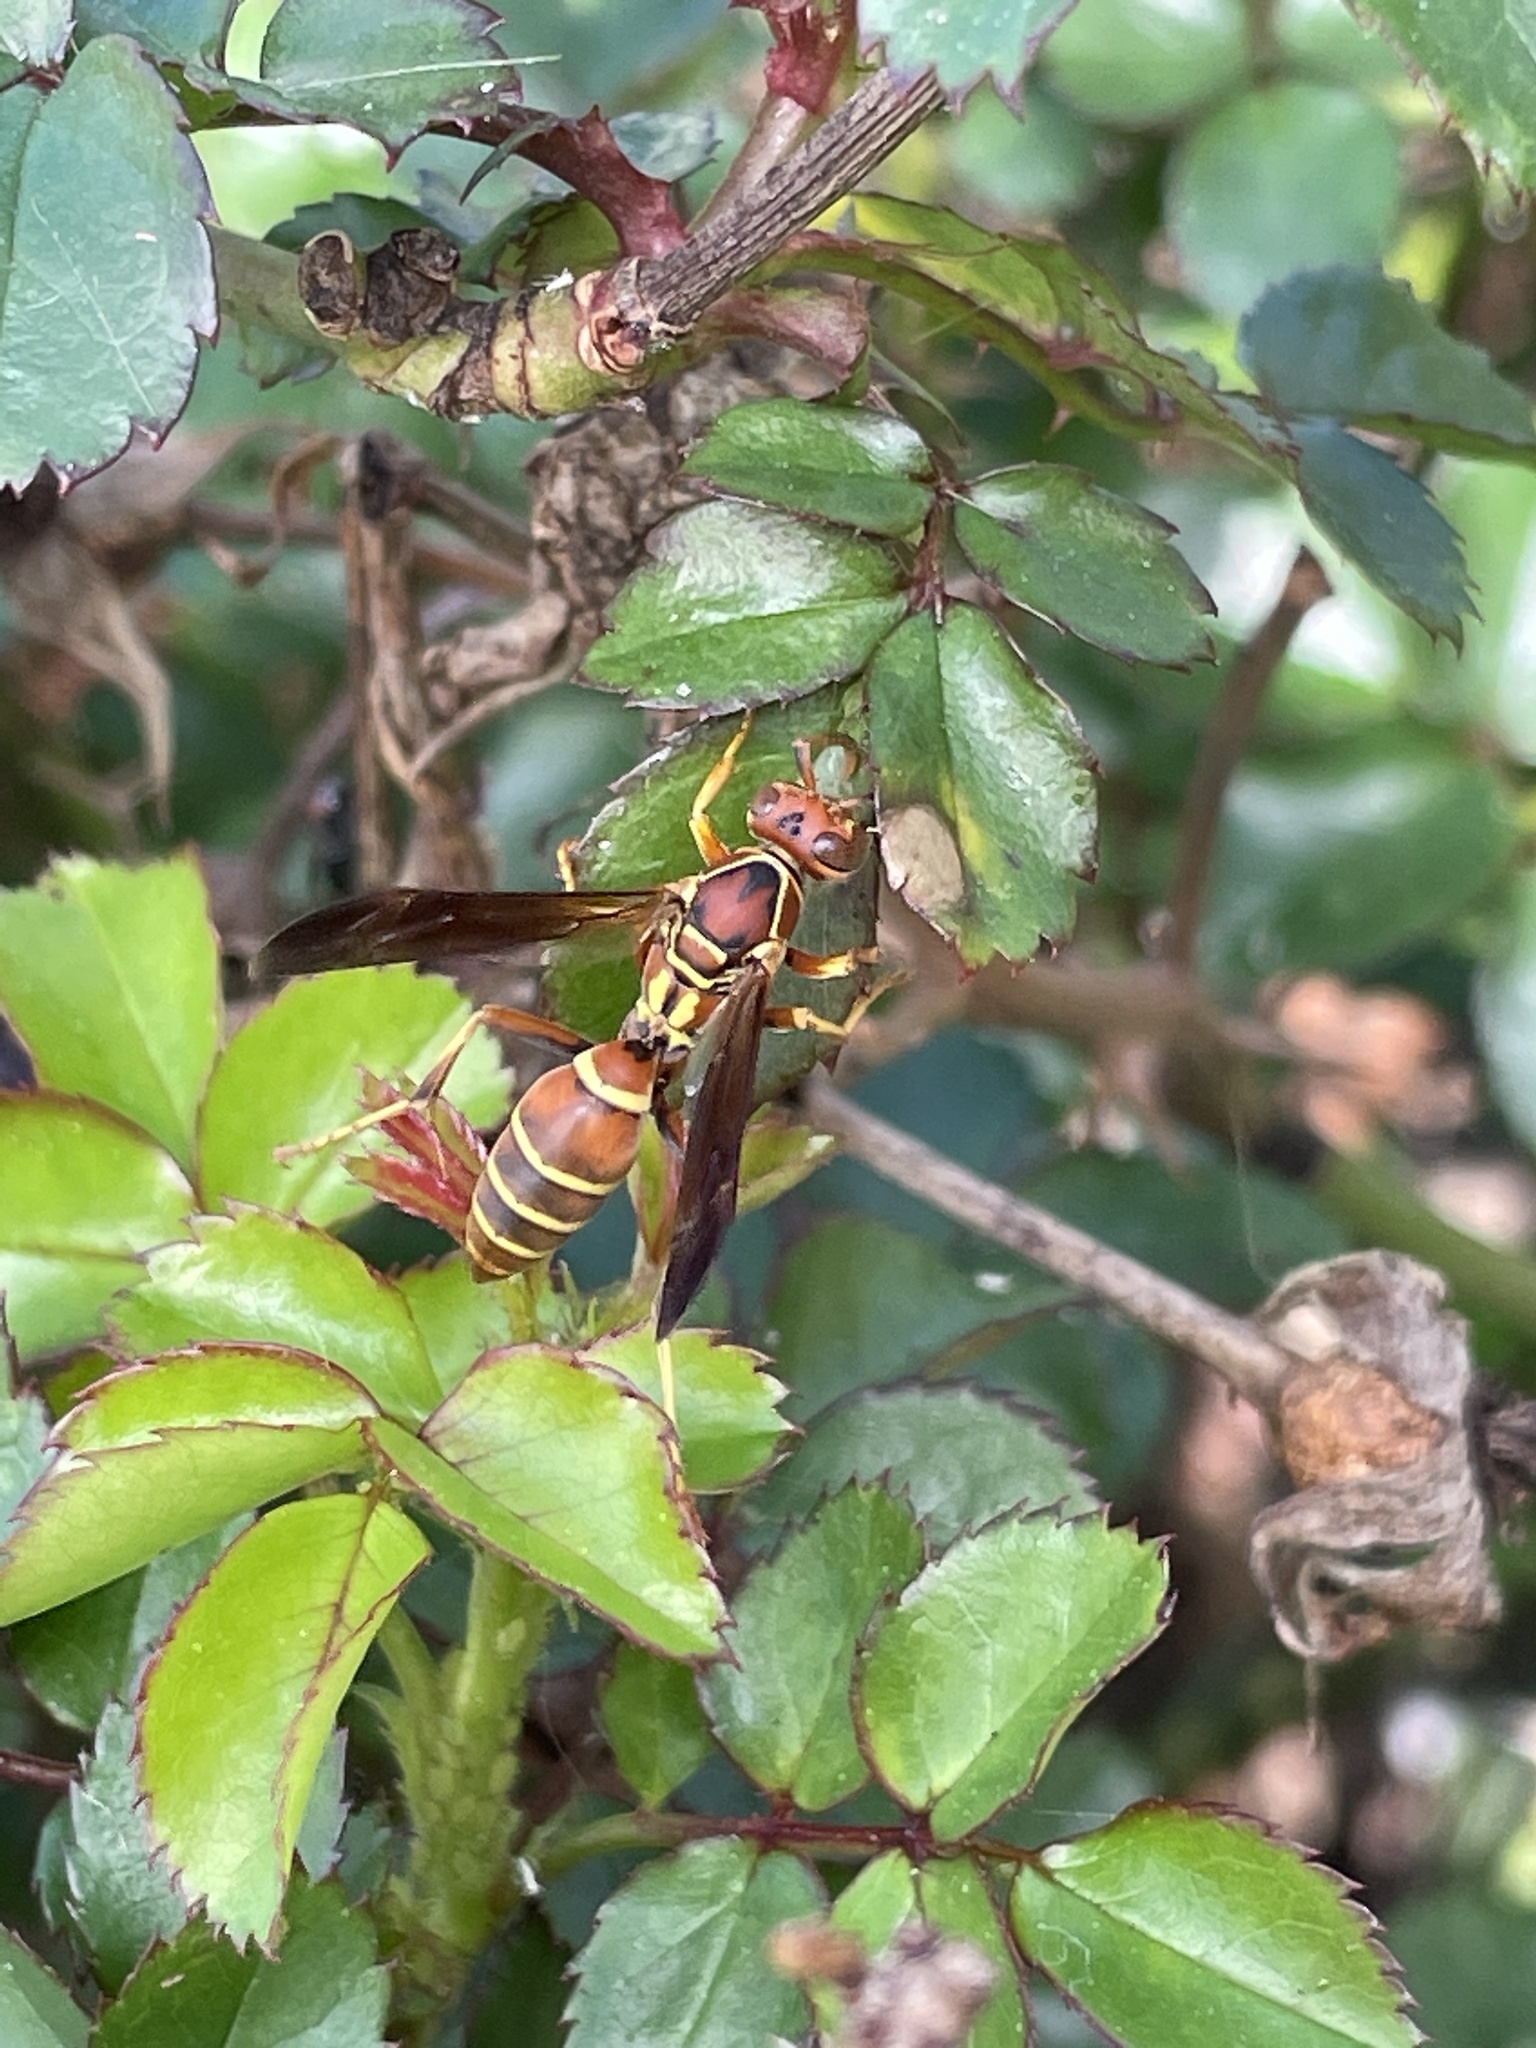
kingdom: Animalia
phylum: Arthropoda
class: Insecta
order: Hymenoptera
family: Eumenidae
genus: Polistes
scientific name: Polistes dorsalis
